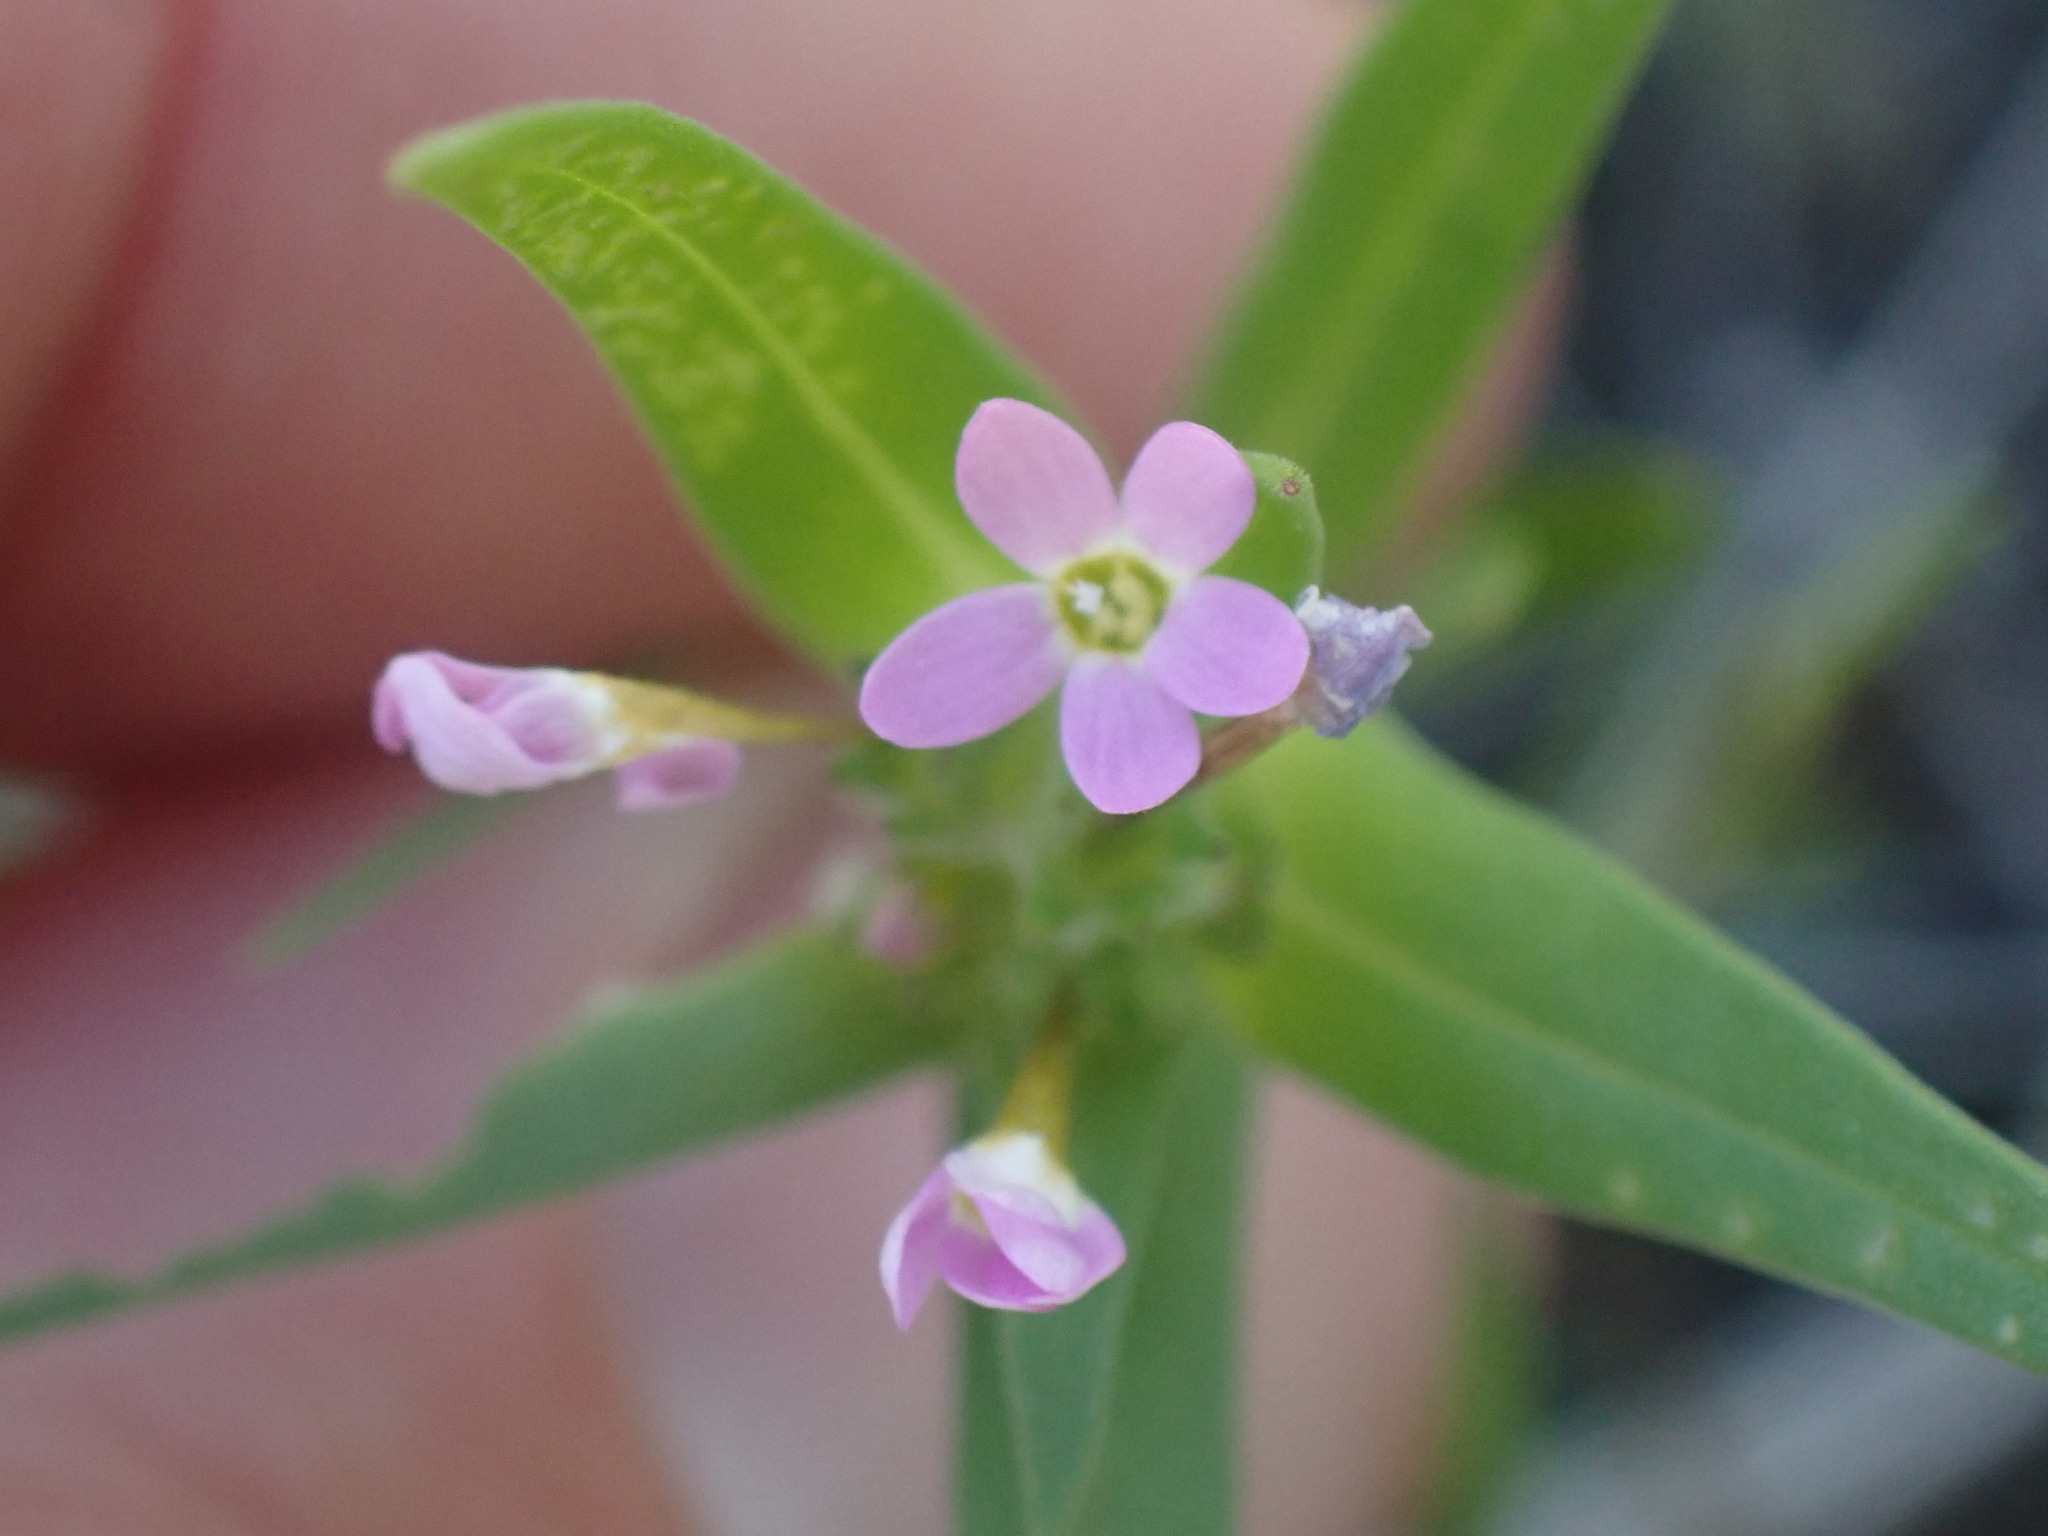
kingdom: Plantae
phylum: Tracheophyta
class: Magnoliopsida
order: Ericales
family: Polemoniaceae
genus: Collomia
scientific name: Collomia linearis
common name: Tiny trumpet
